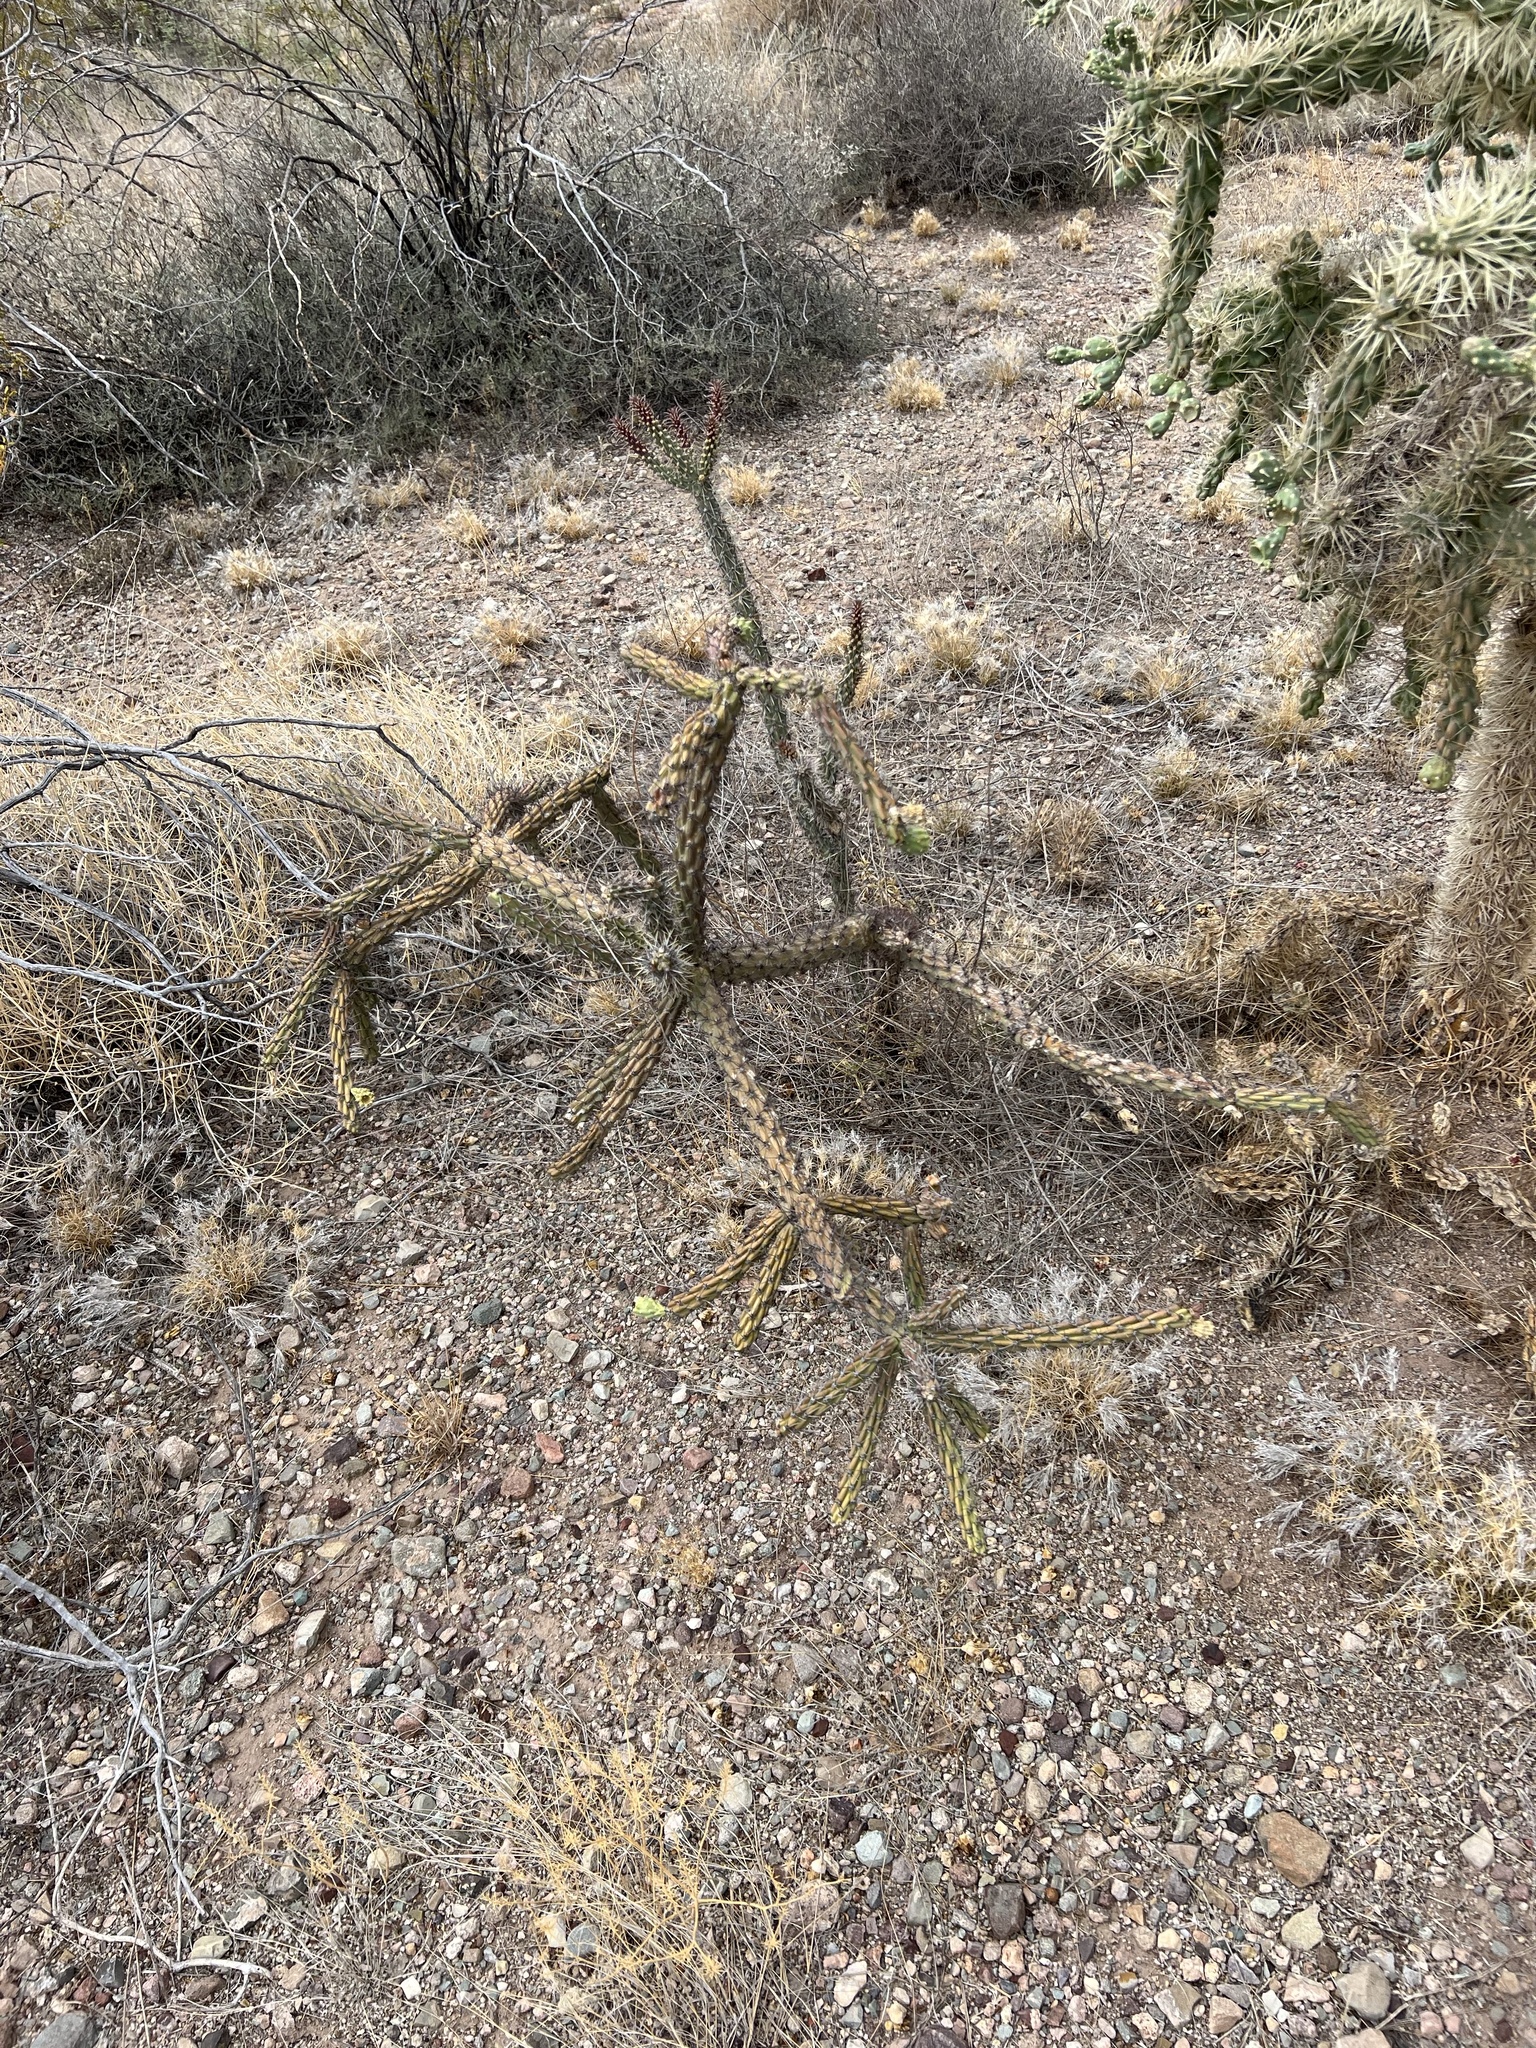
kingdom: Plantae
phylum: Tracheophyta
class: Magnoliopsida
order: Caryophyllales
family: Cactaceae
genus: Cylindropuntia
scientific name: Cylindropuntia thurberi
